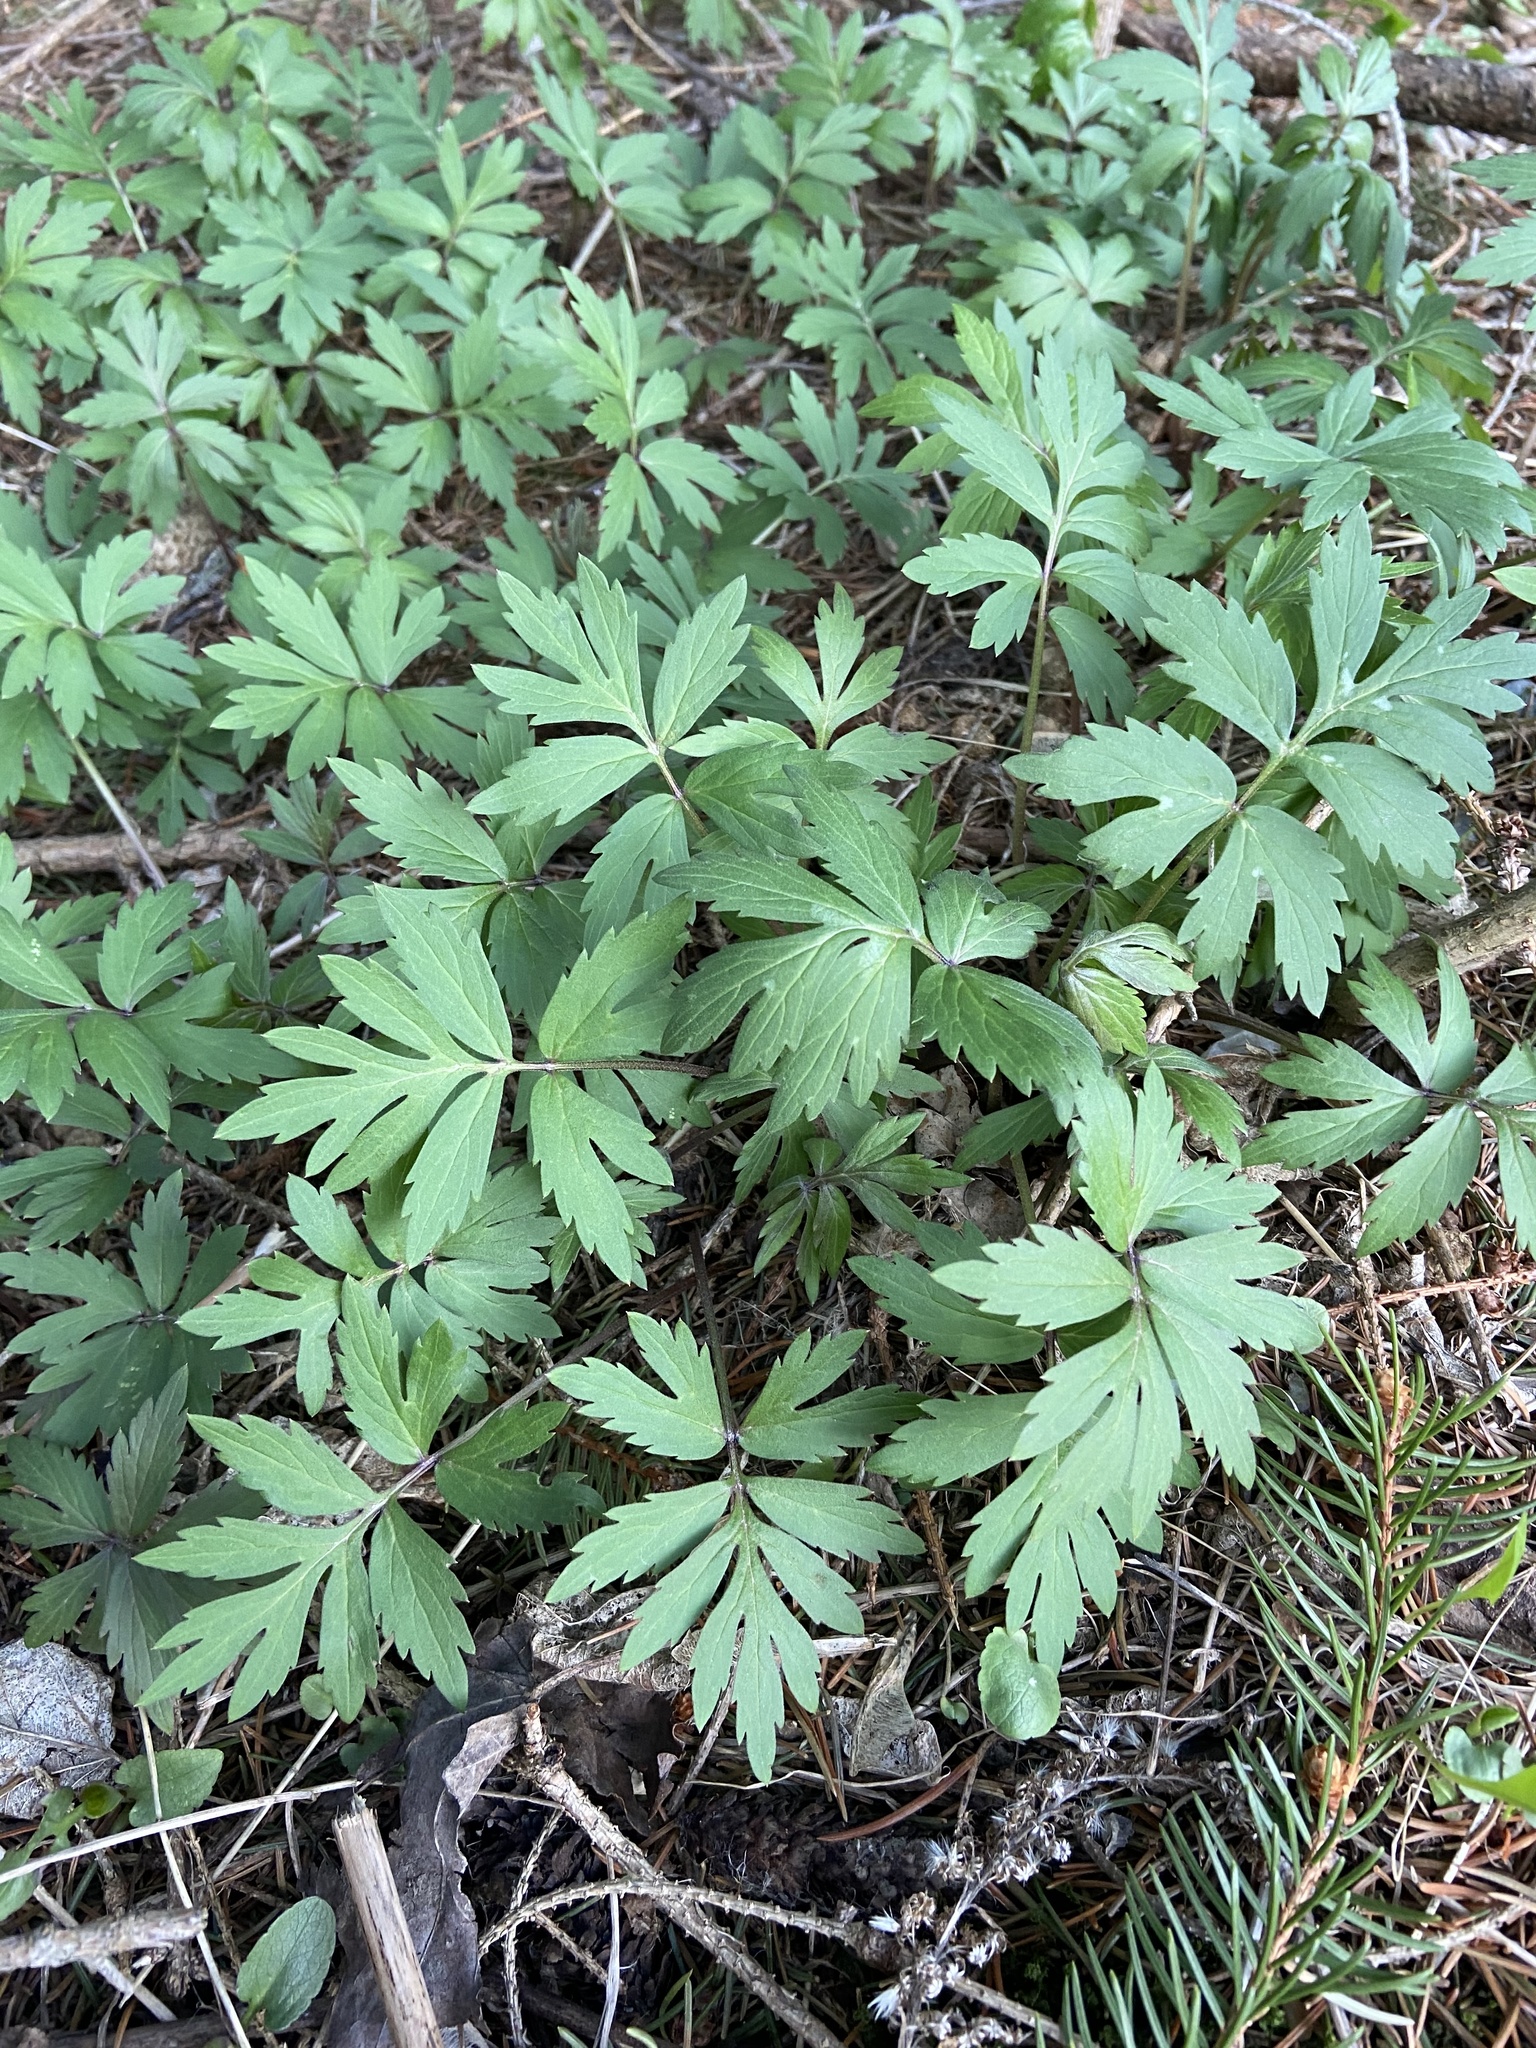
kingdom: Plantae
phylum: Tracheophyta
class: Magnoliopsida
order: Boraginales
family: Hydrophyllaceae
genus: Hydrophyllum
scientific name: Hydrophyllum virginianum
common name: Virginia waterleaf
